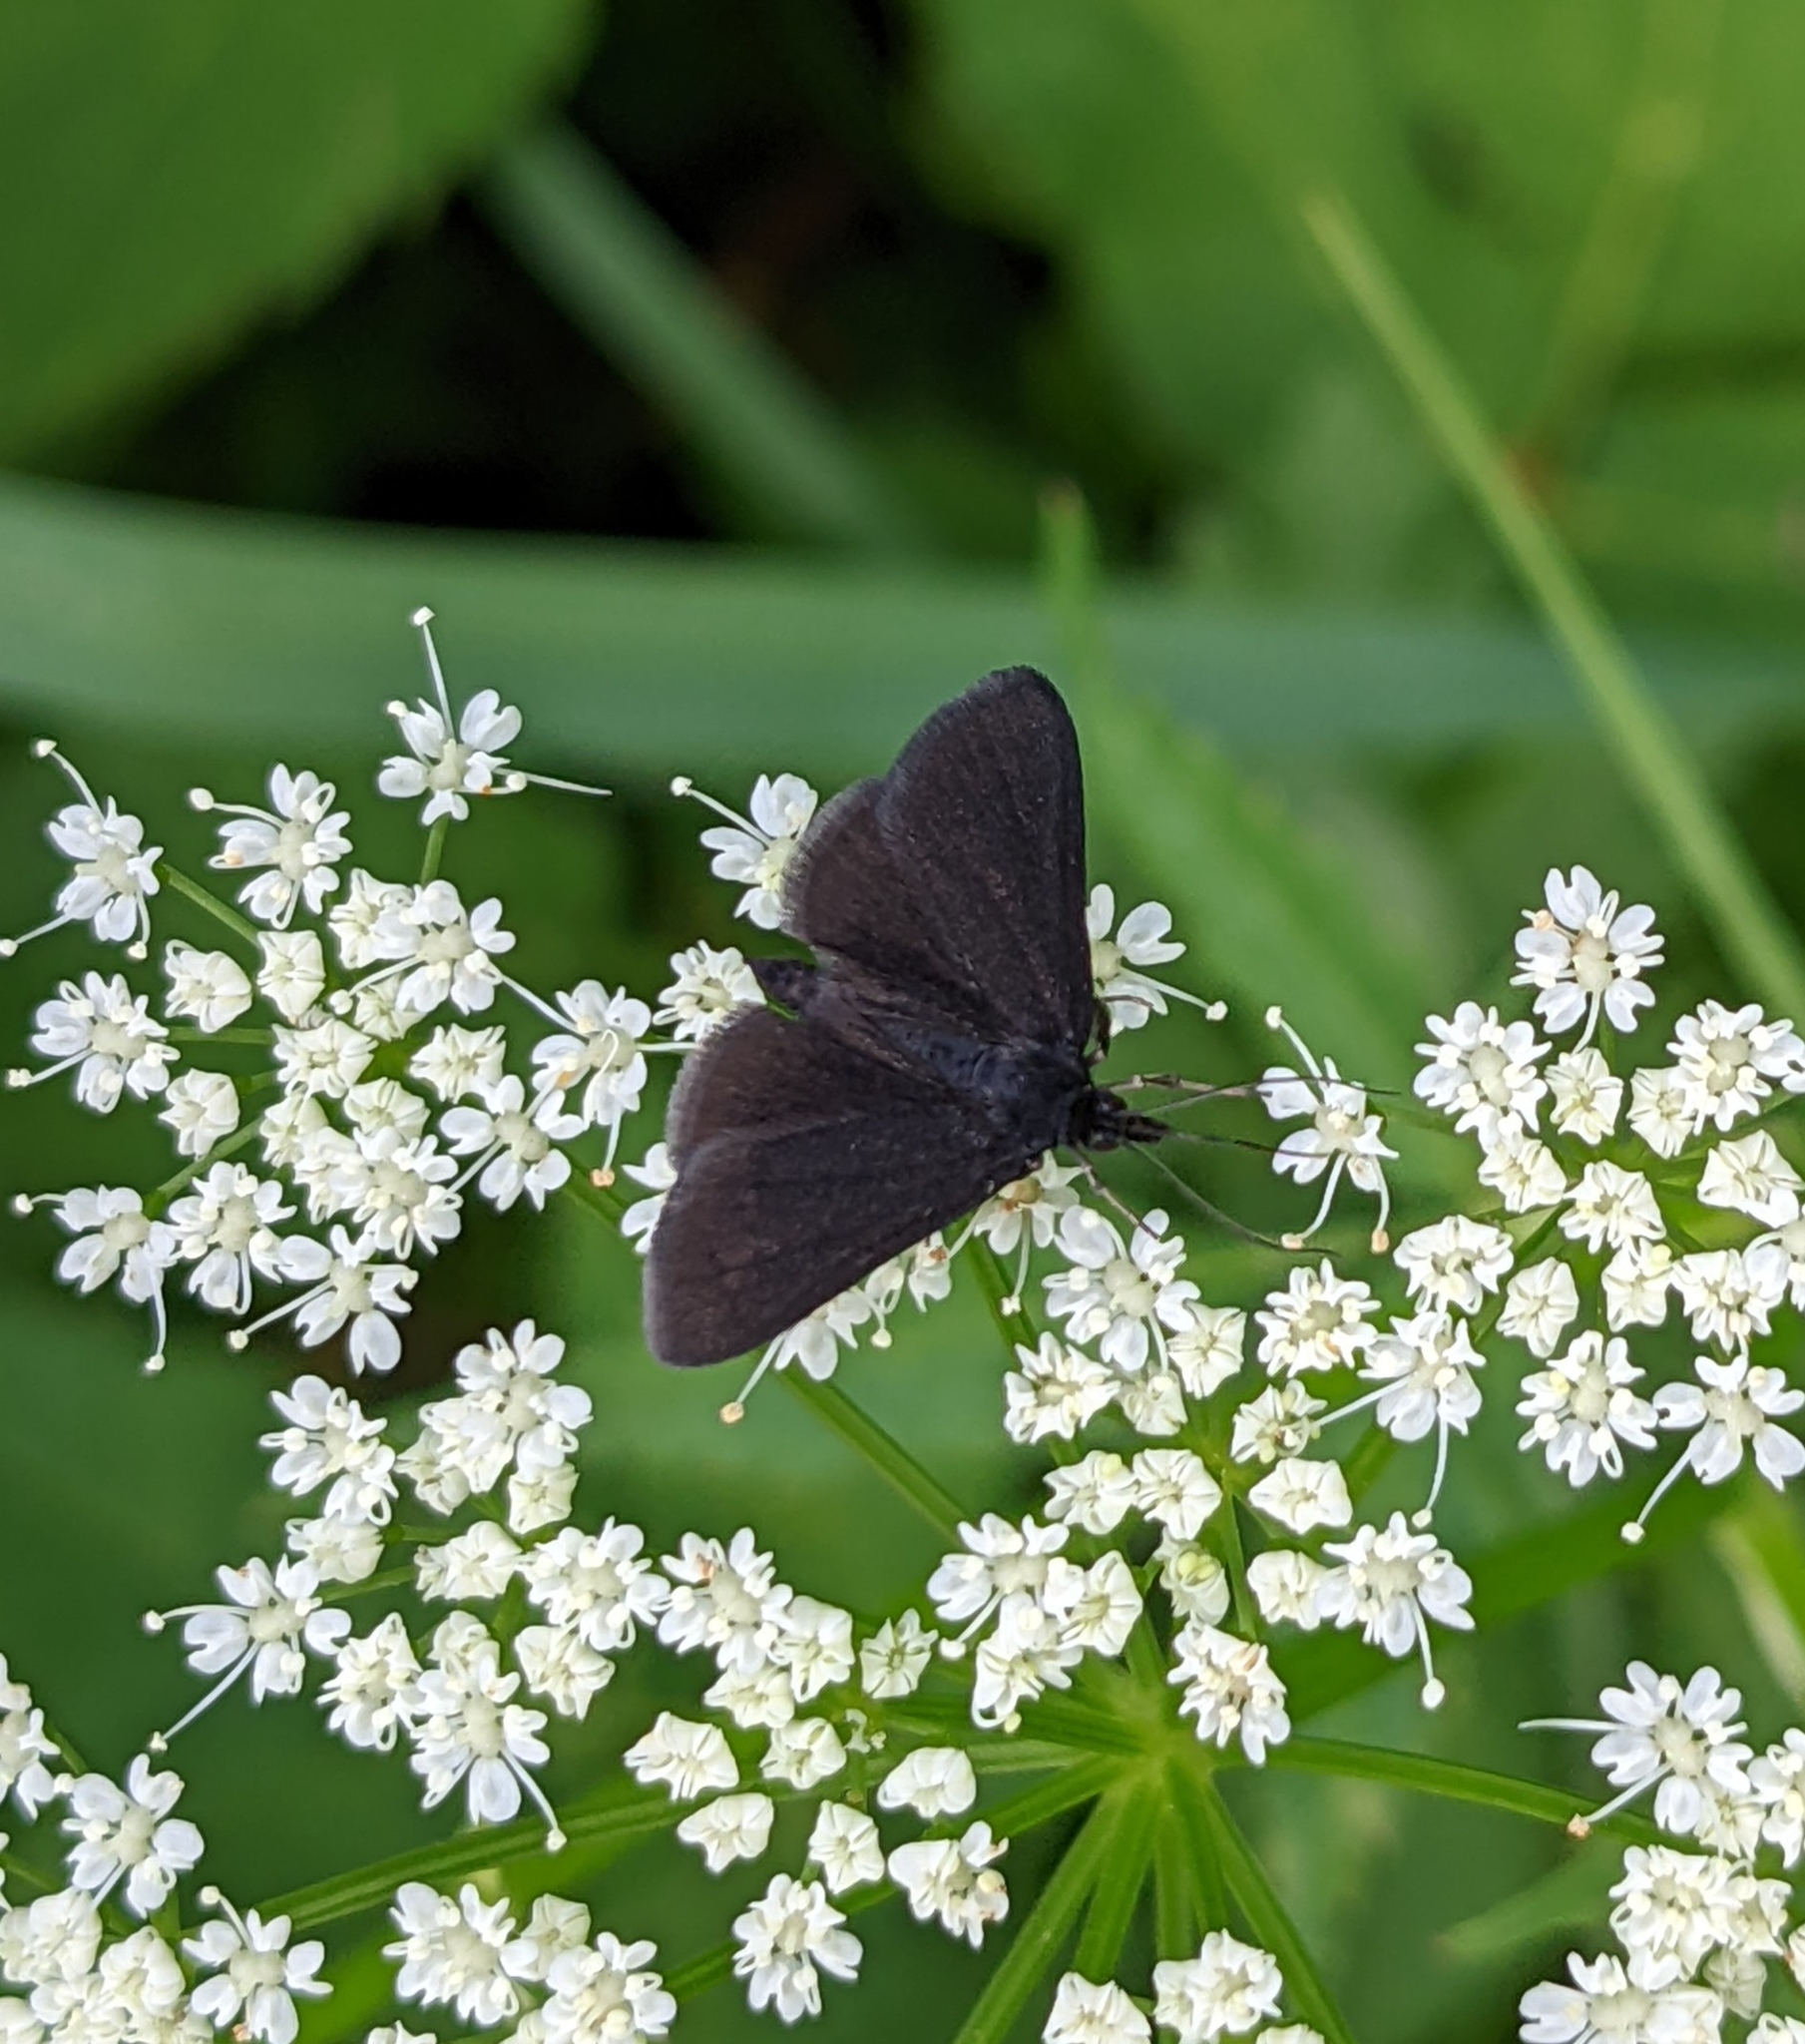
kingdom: Animalia
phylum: Arthropoda
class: Insecta
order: Lepidoptera
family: Crambidae
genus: Pyrausta
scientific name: Pyrausta coracinalis
